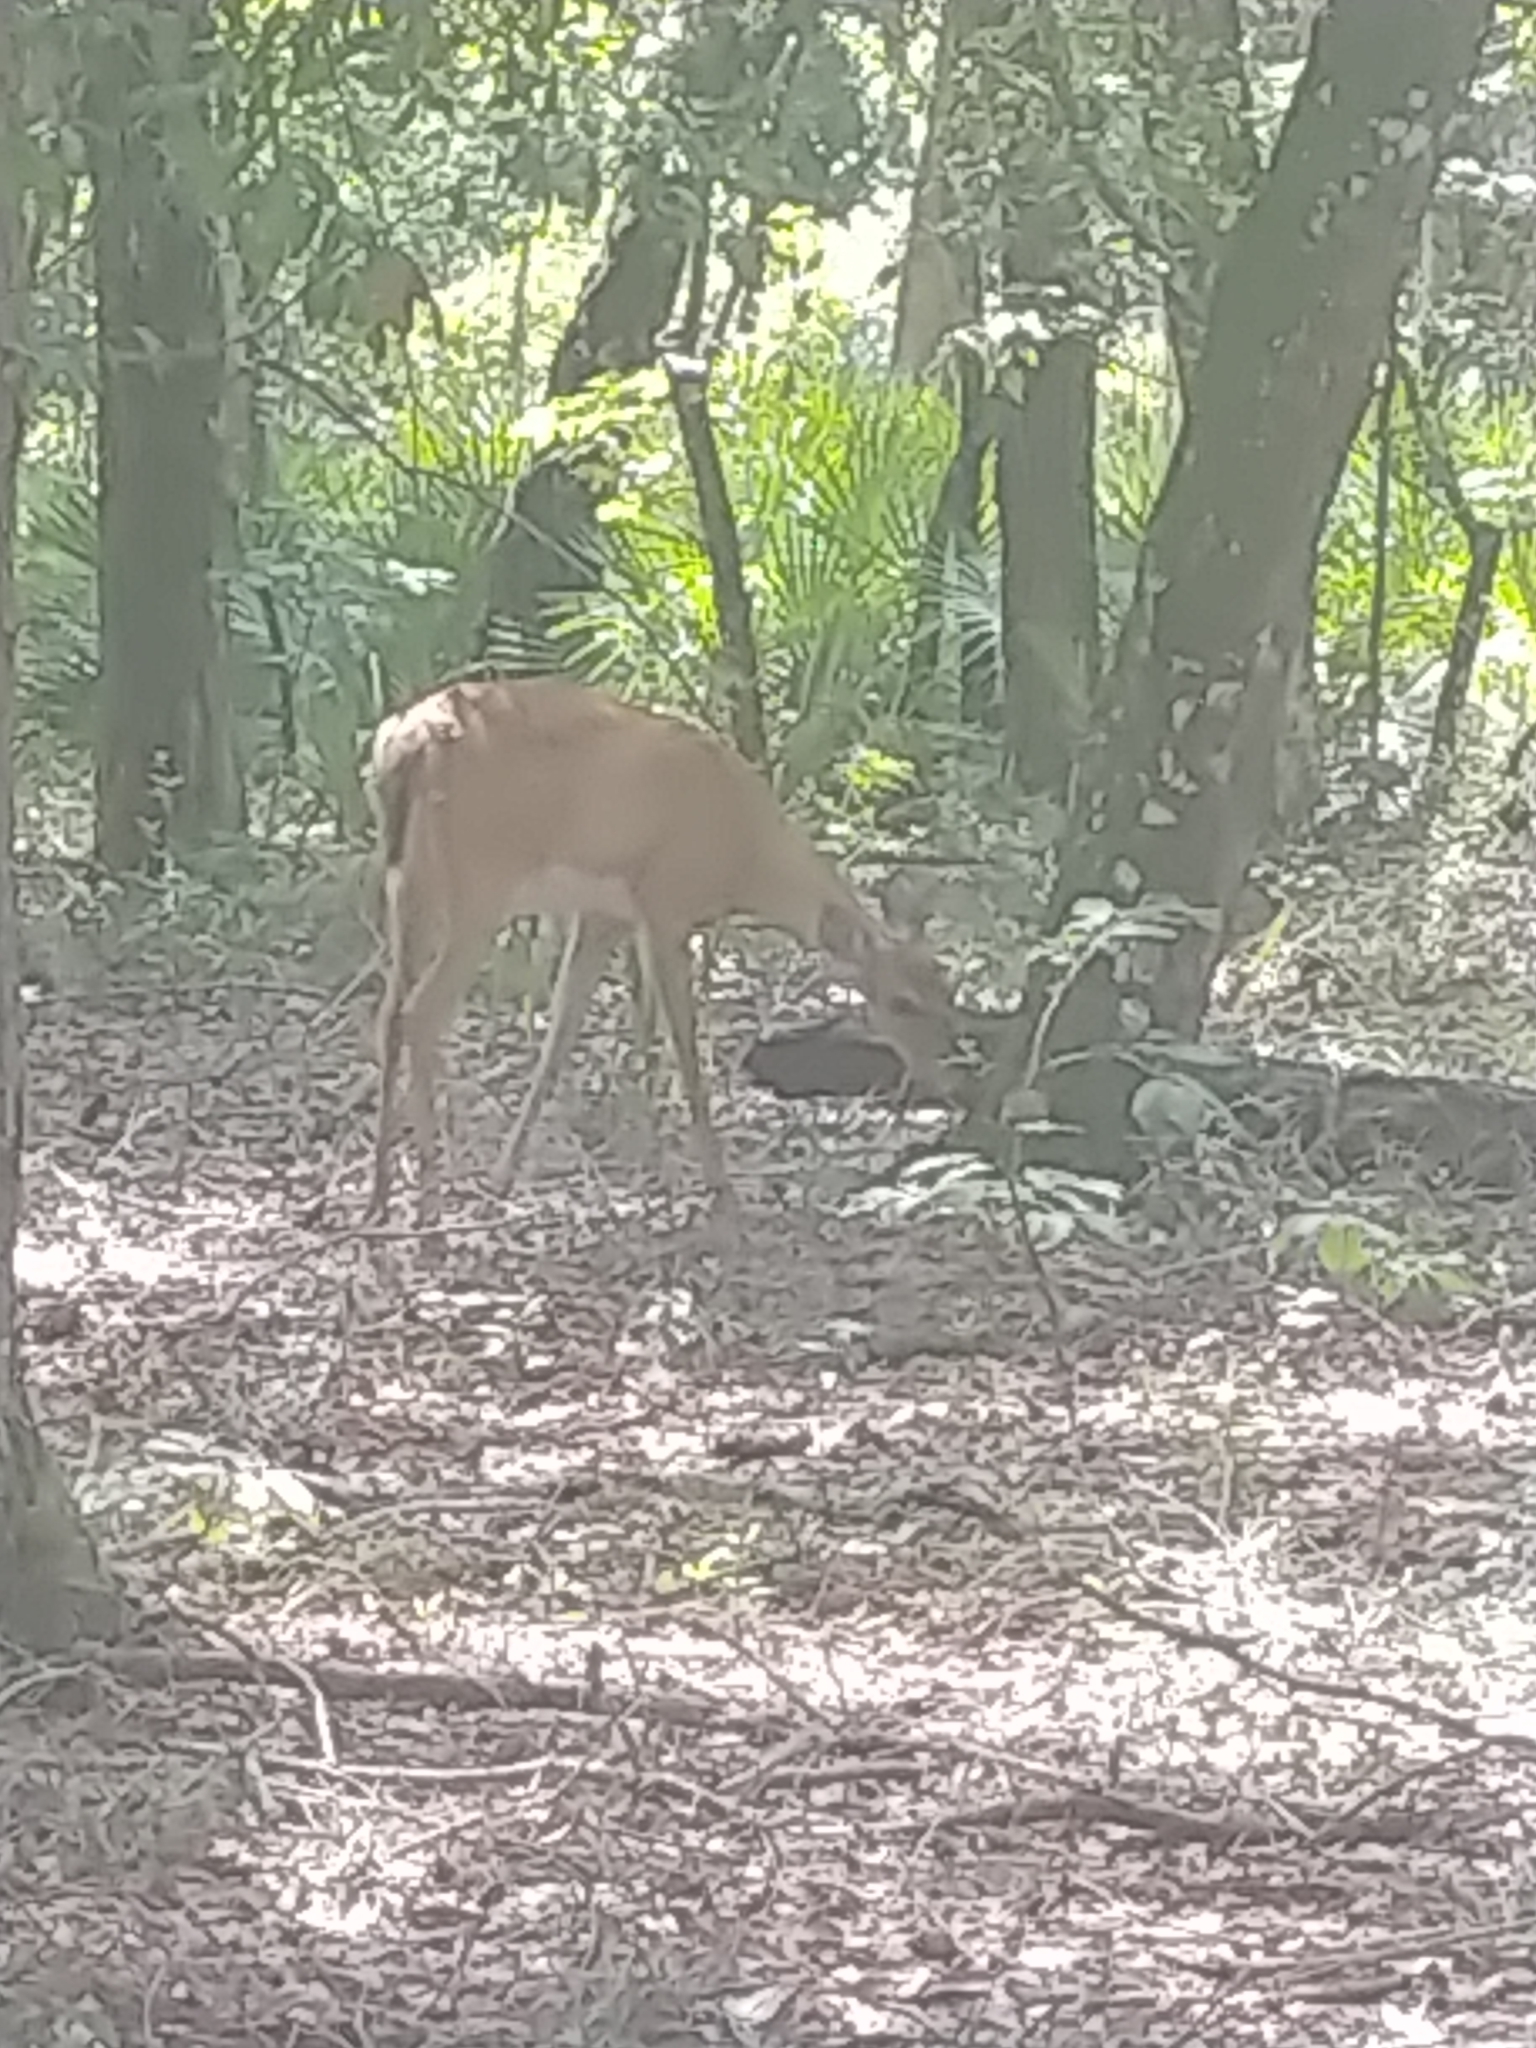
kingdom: Animalia
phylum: Chordata
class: Mammalia
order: Artiodactyla
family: Cervidae
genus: Odocoileus
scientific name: Odocoileus virginianus
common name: White-tailed deer
